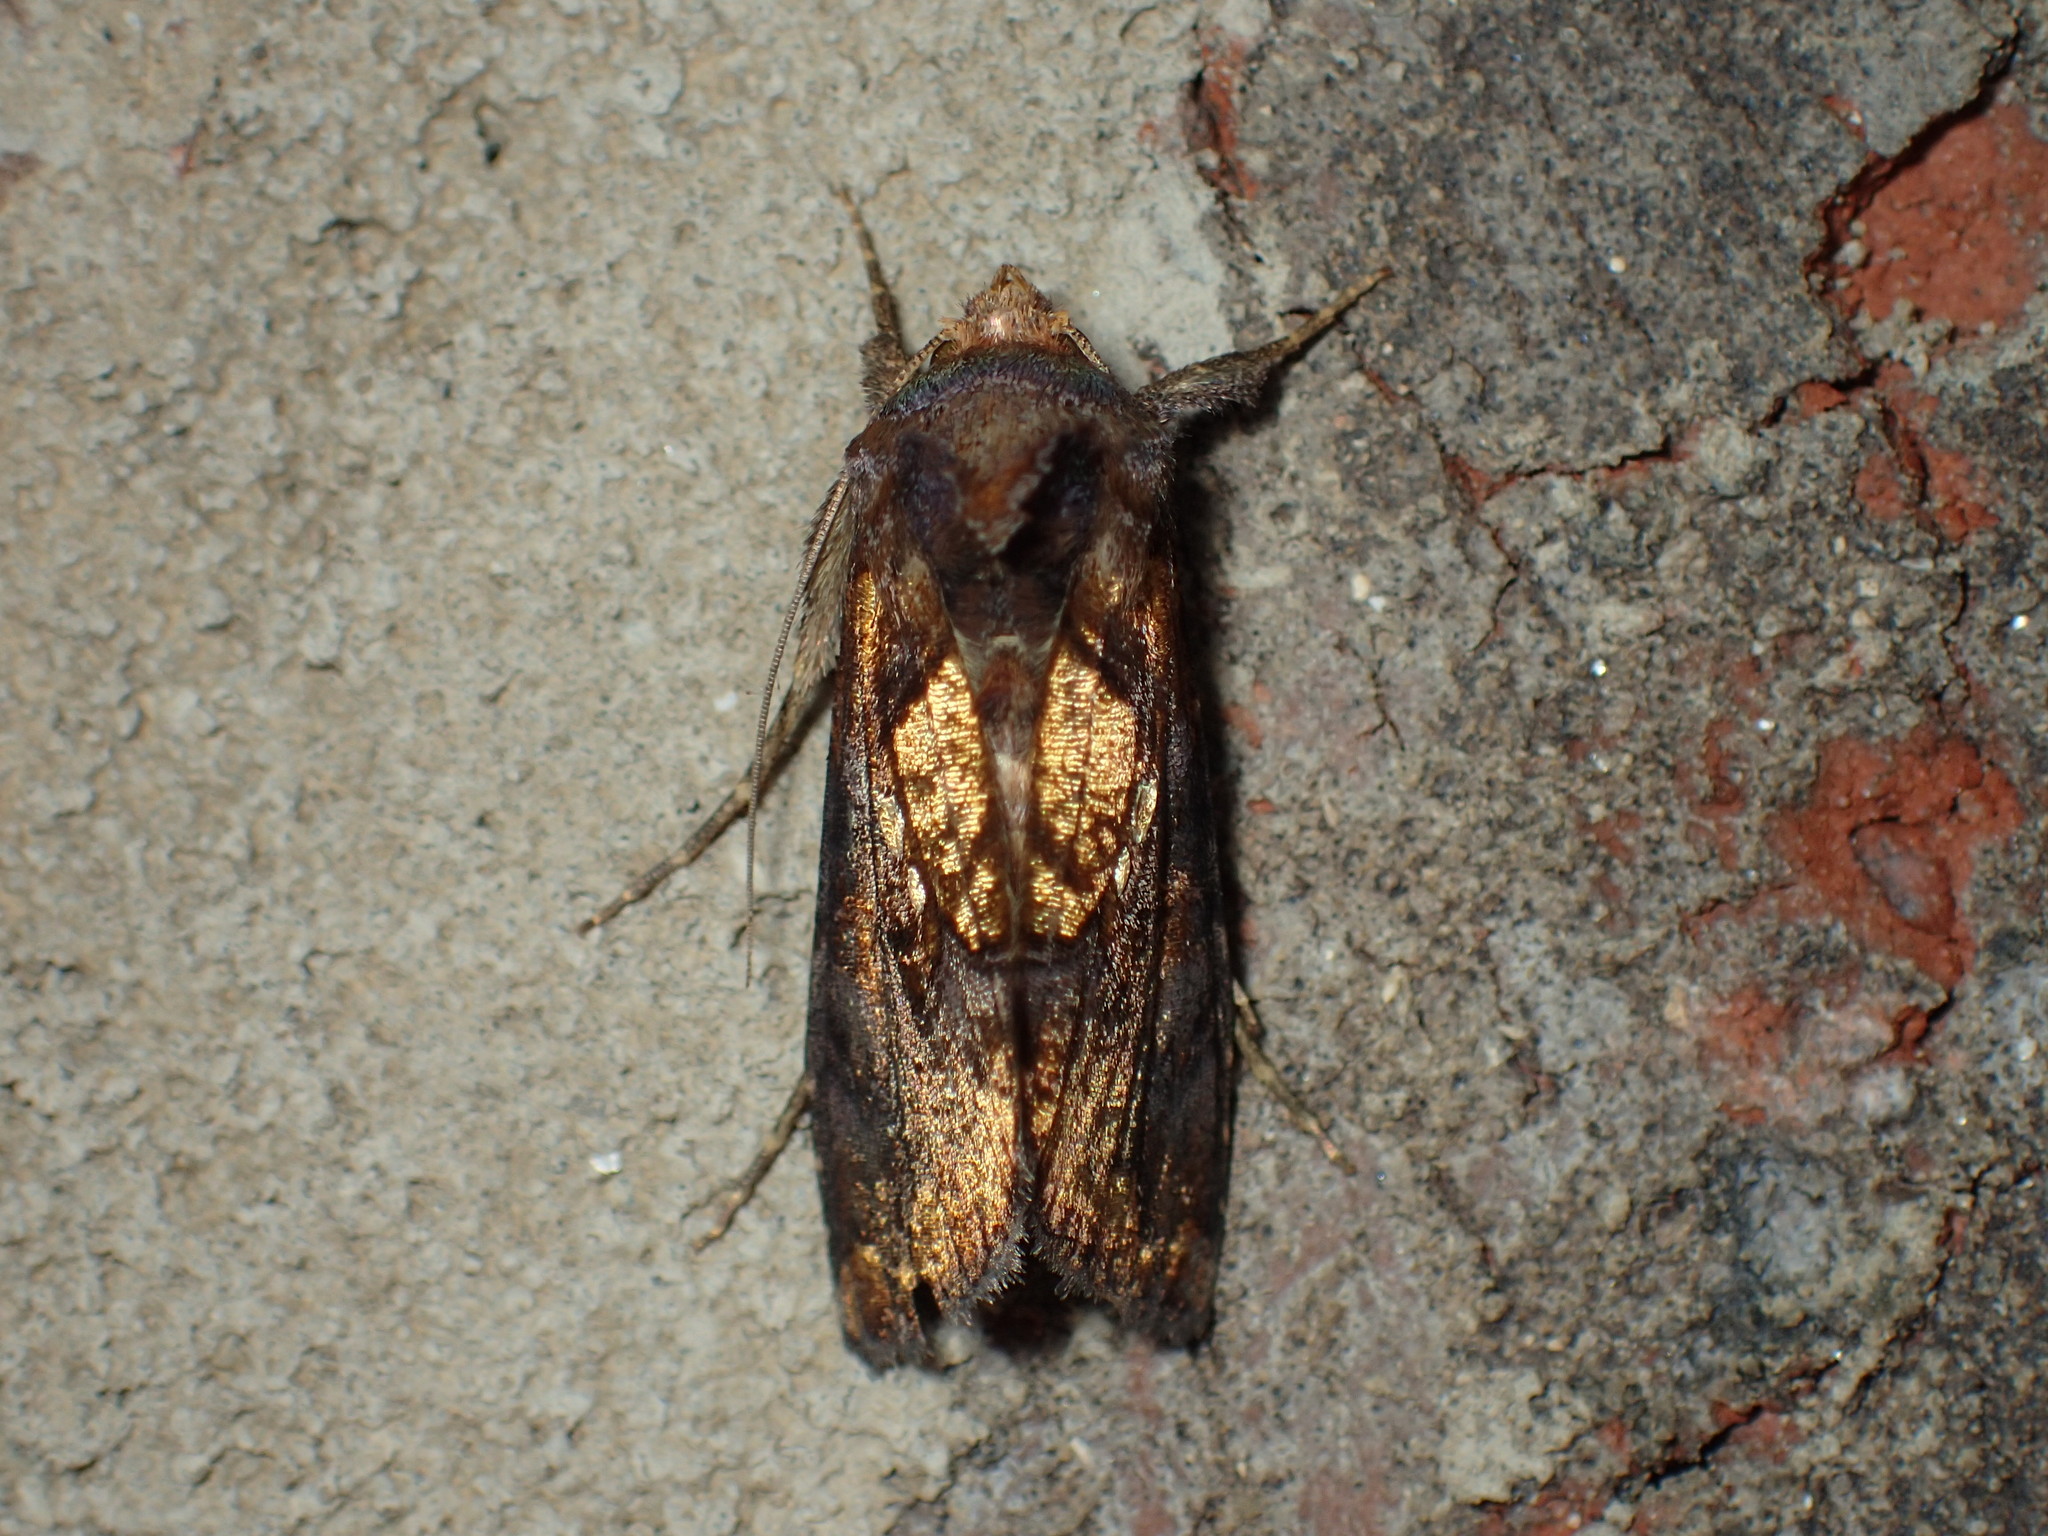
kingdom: Animalia
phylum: Arthropoda
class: Insecta
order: Lepidoptera
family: Noctuidae
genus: Argyrogramma
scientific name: Argyrogramma verruca
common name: Golden looper moth
